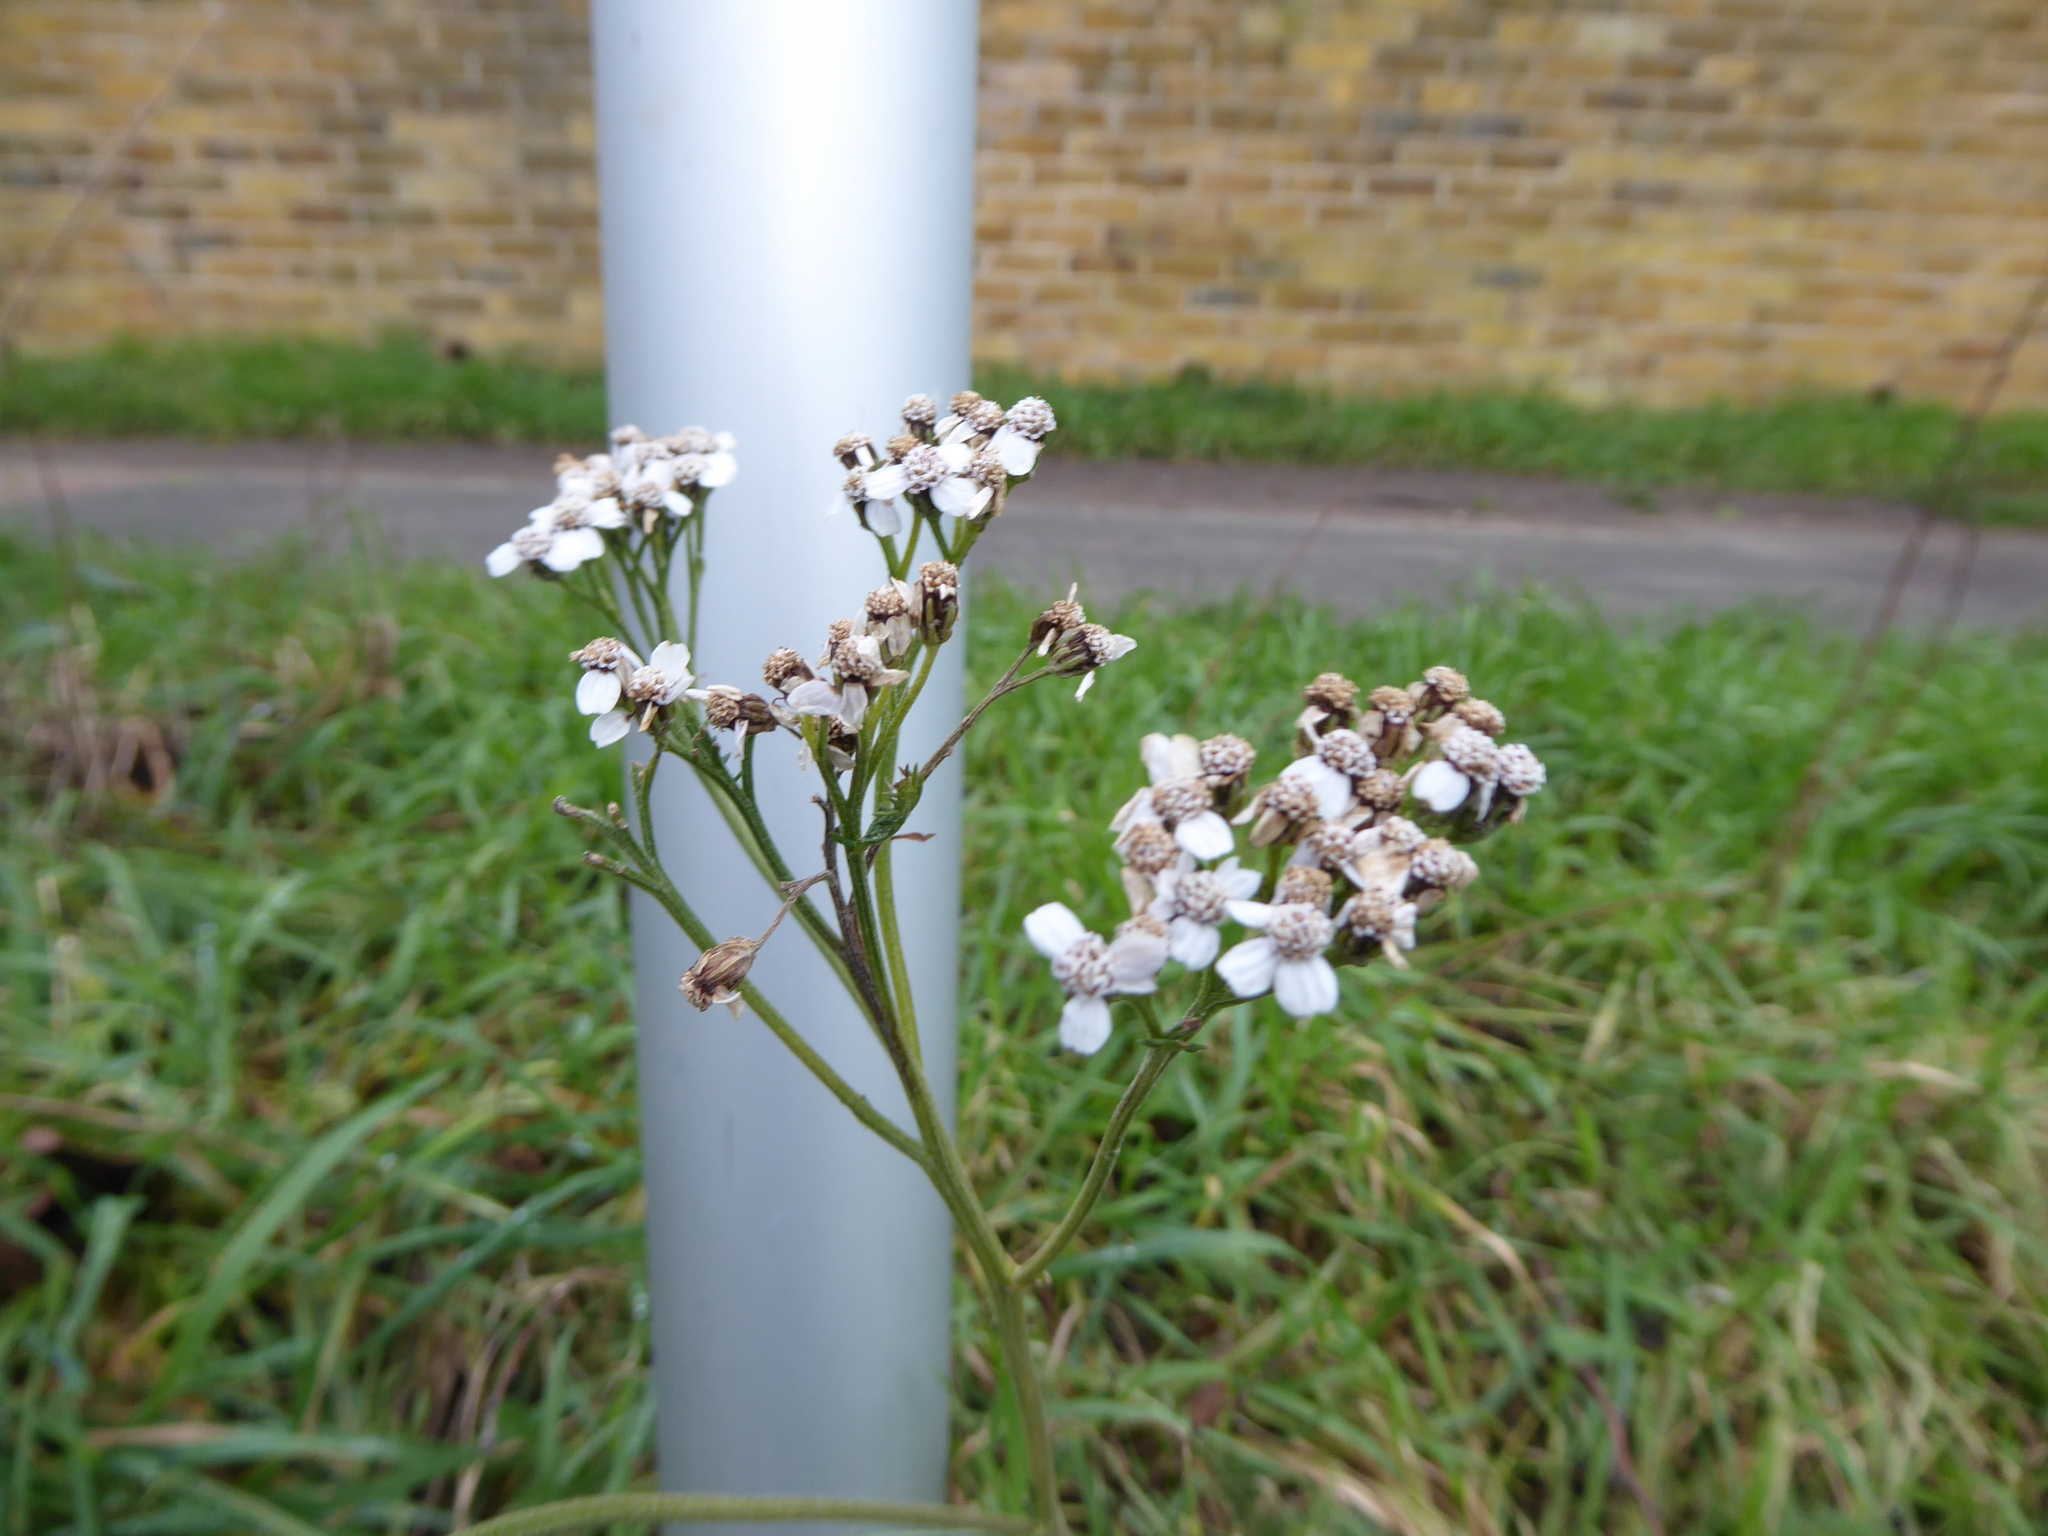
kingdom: Plantae
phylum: Tracheophyta
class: Magnoliopsida
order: Asterales
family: Asteraceae
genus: Achillea
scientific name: Achillea millefolium
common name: Yarrow
